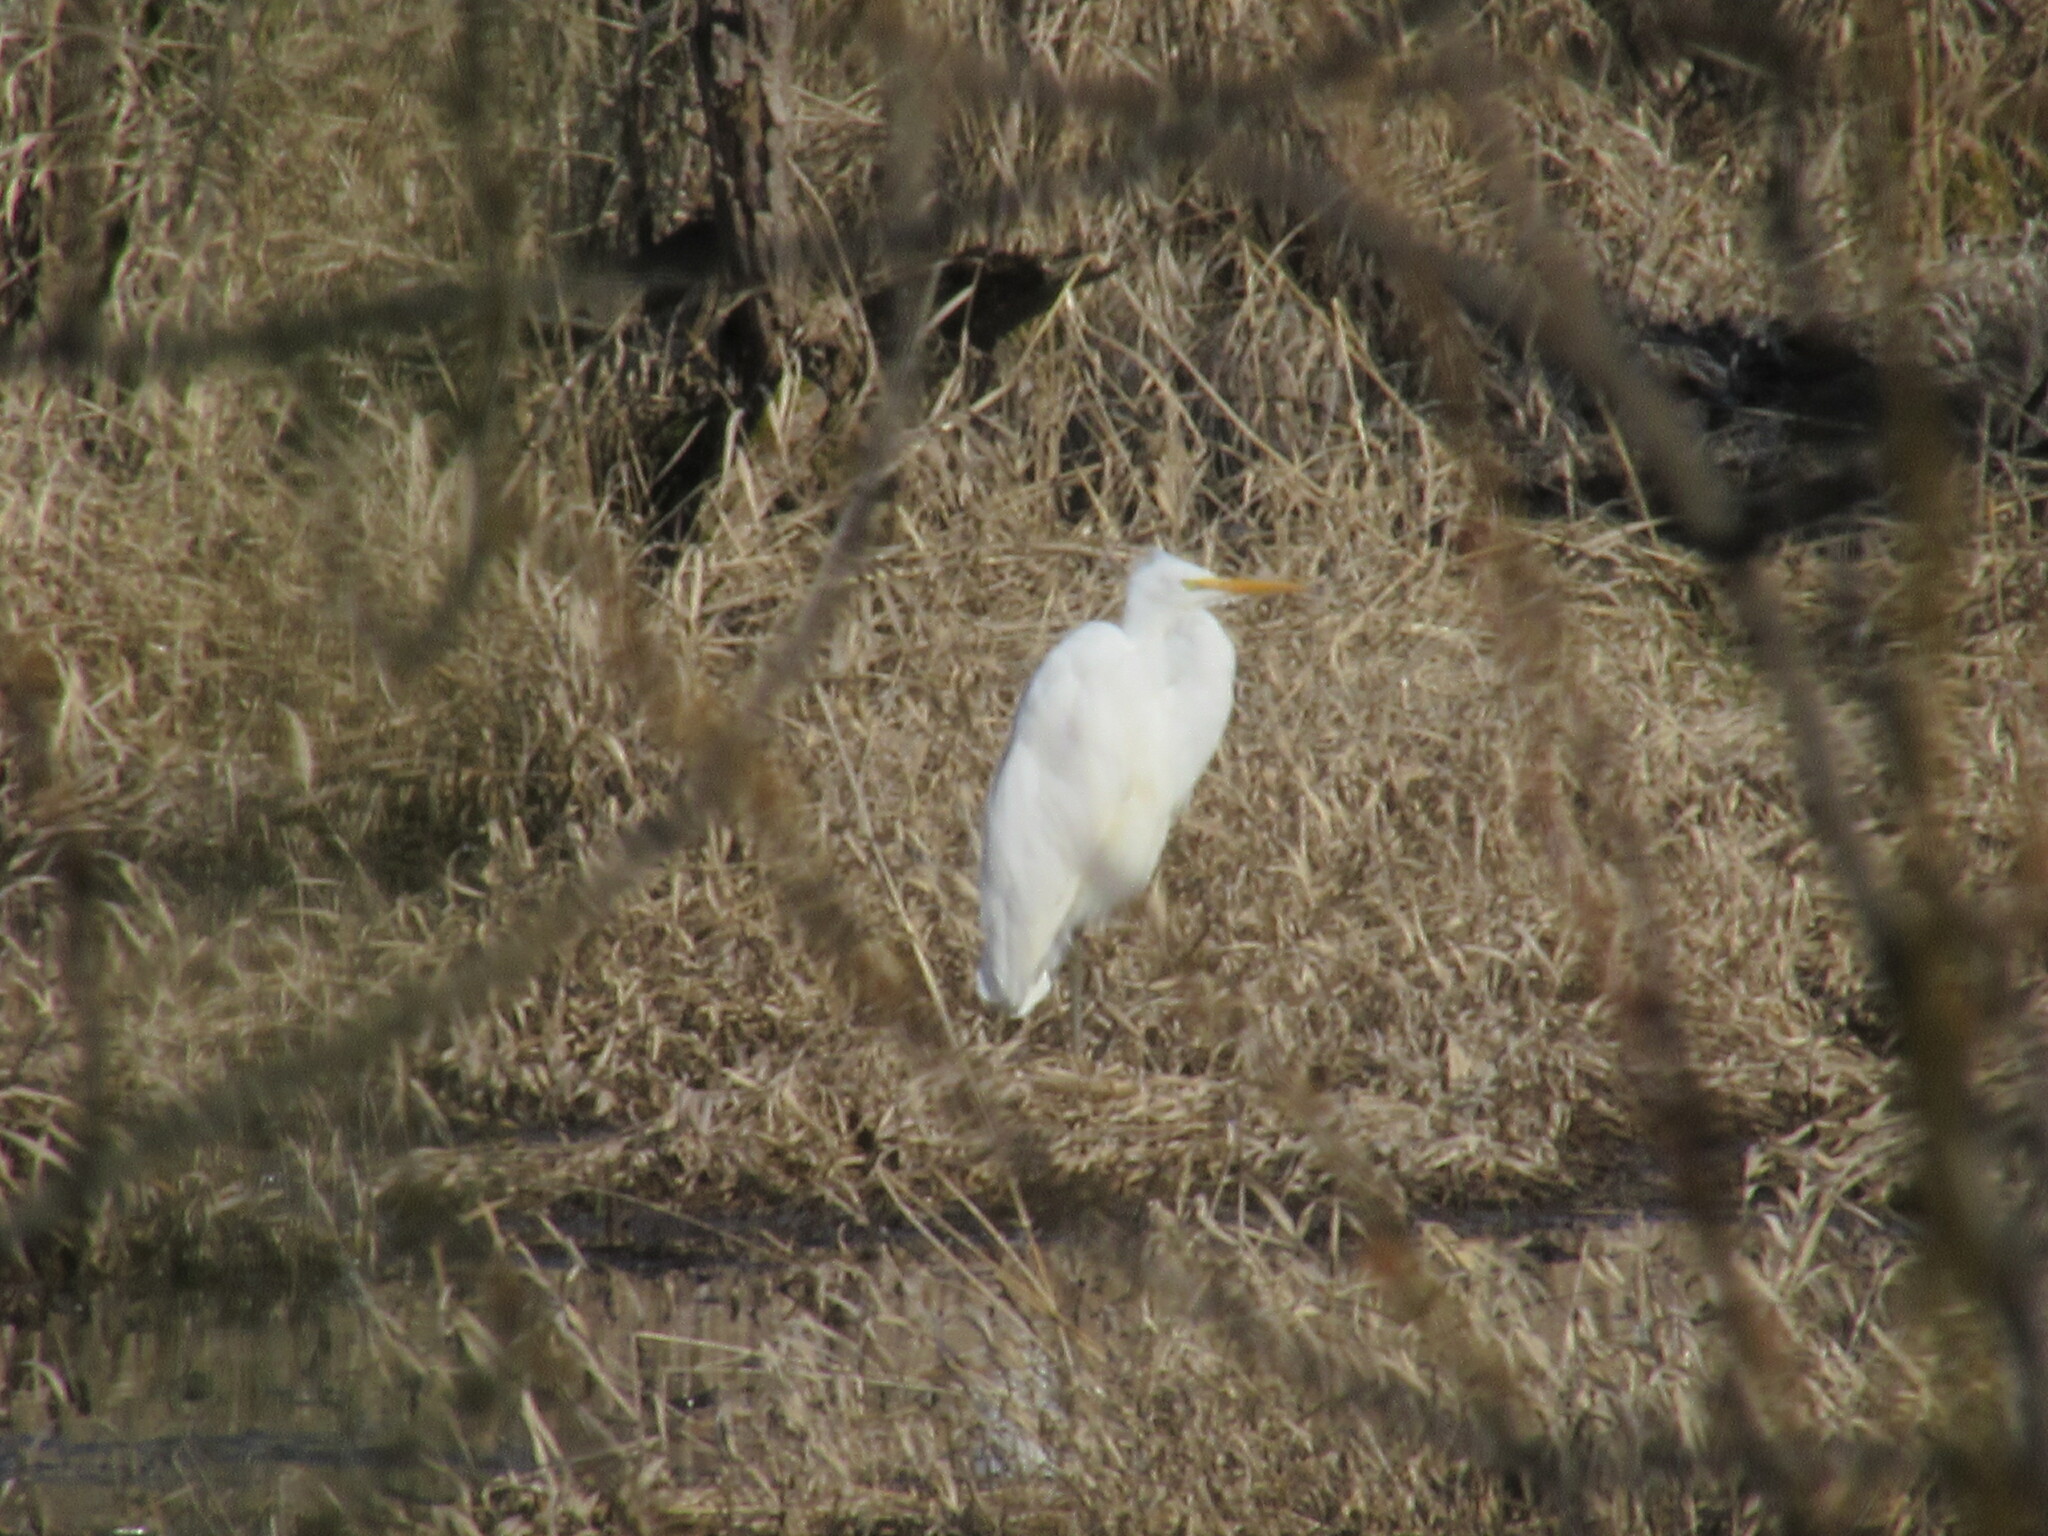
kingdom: Animalia
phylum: Chordata
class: Aves
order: Pelecaniformes
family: Ardeidae
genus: Ardea
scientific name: Ardea alba
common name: Great egret
